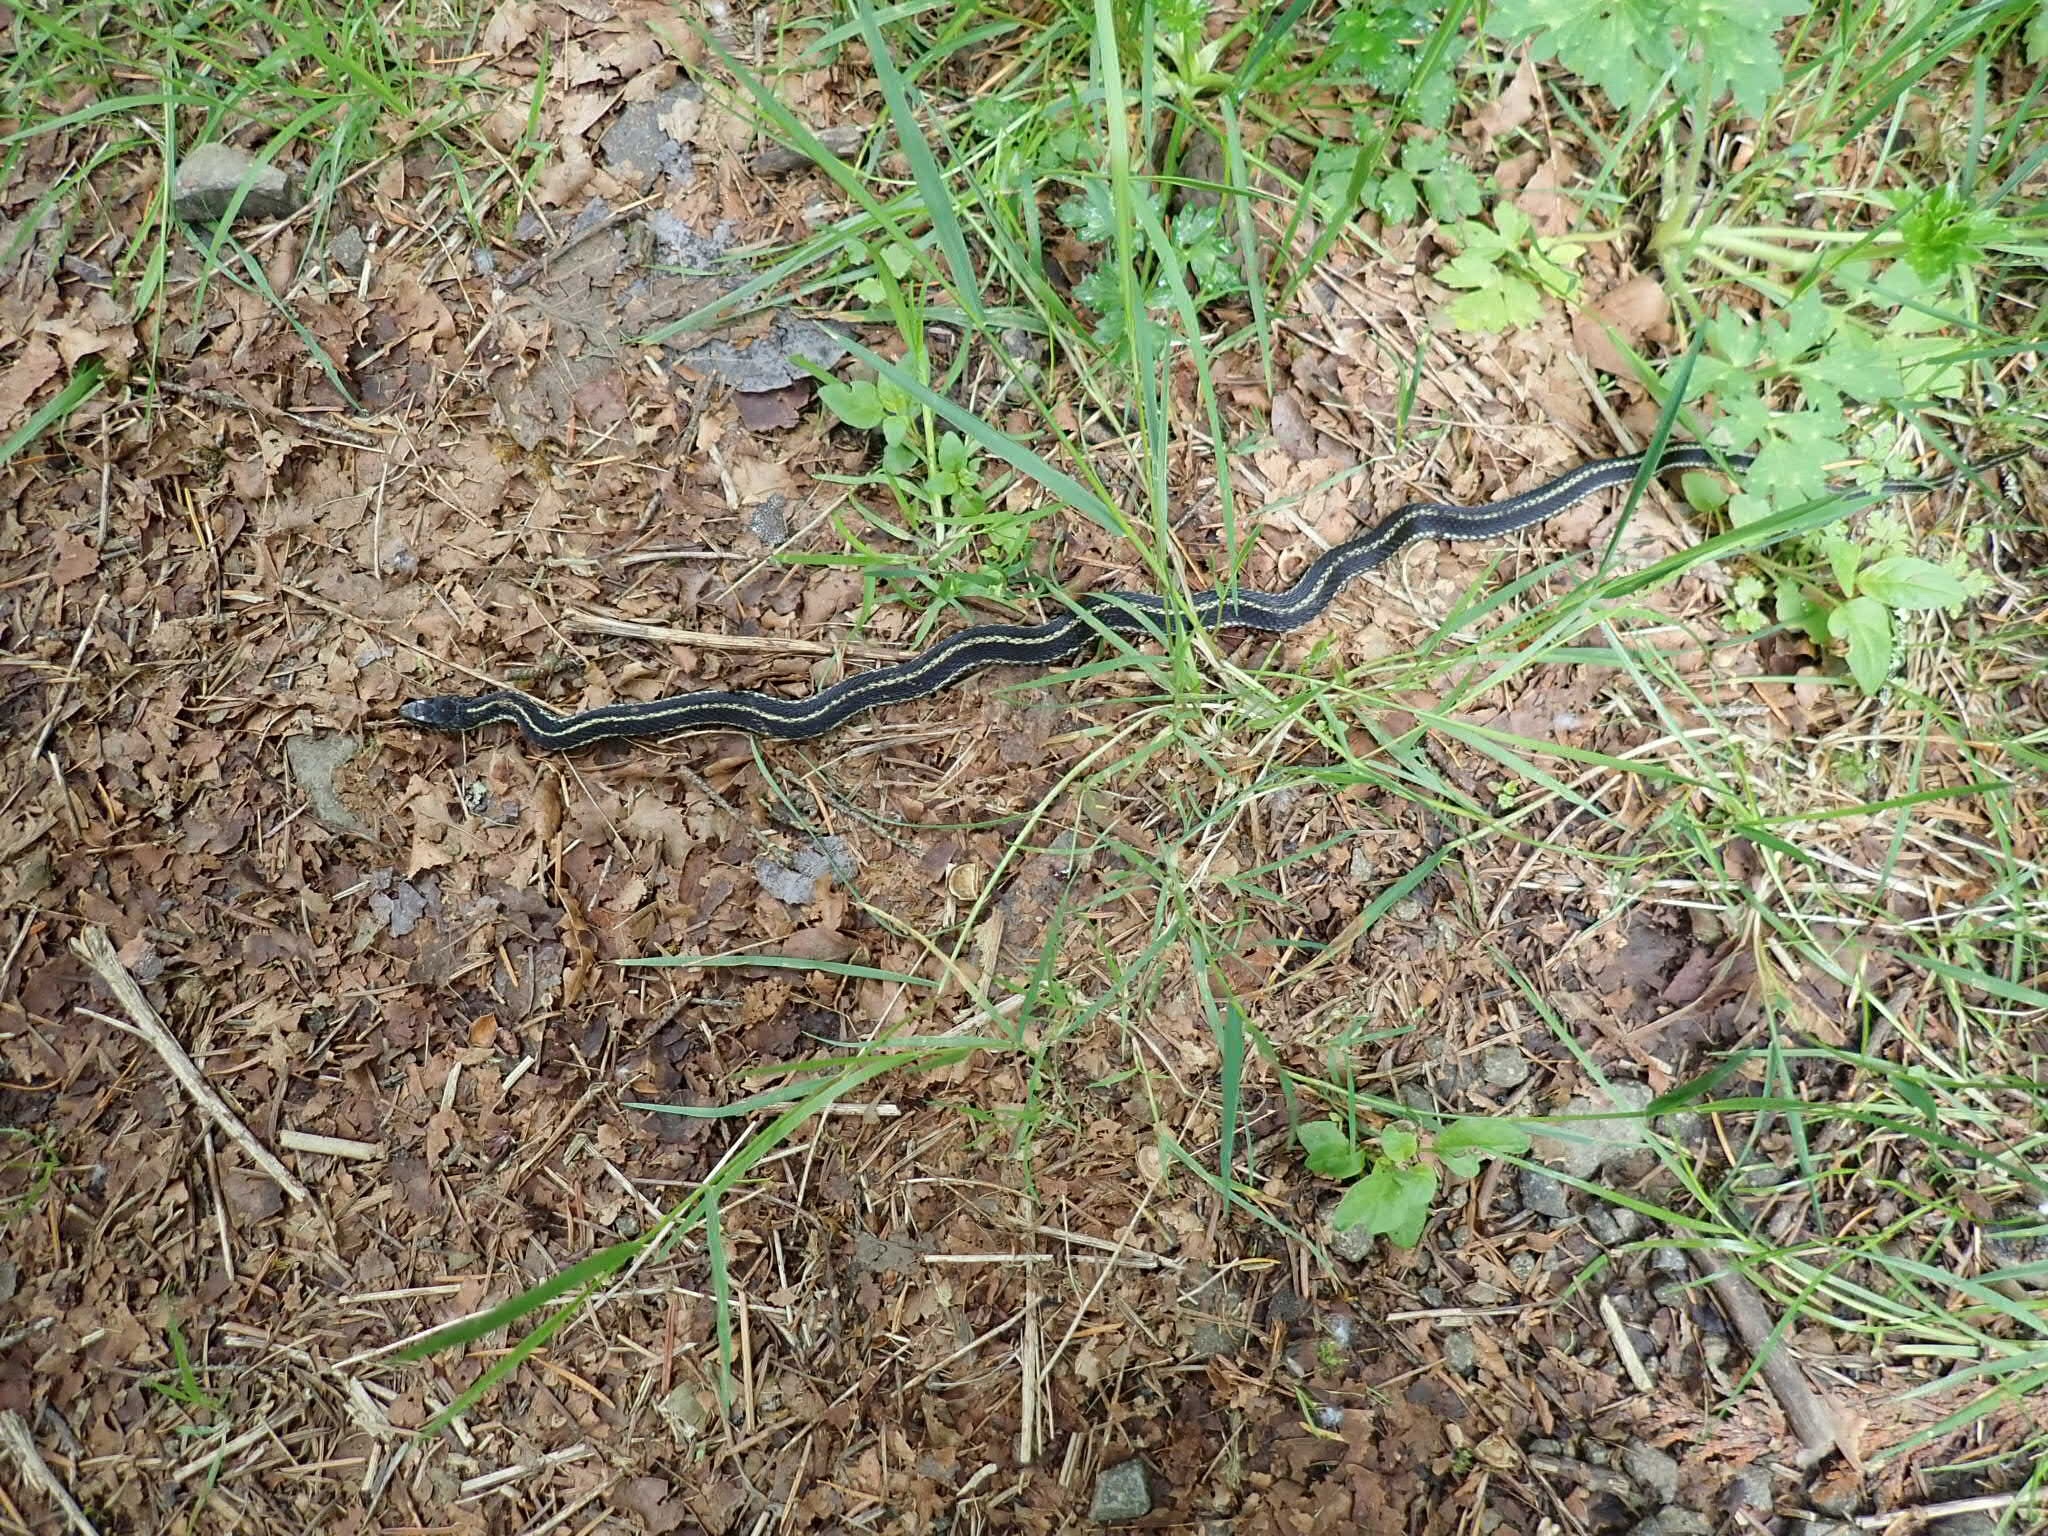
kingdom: Animalia
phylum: Chordata
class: Squamata
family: Colubridae
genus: Thamnophis
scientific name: Thamnophis sirtalis
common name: Common garter snake
